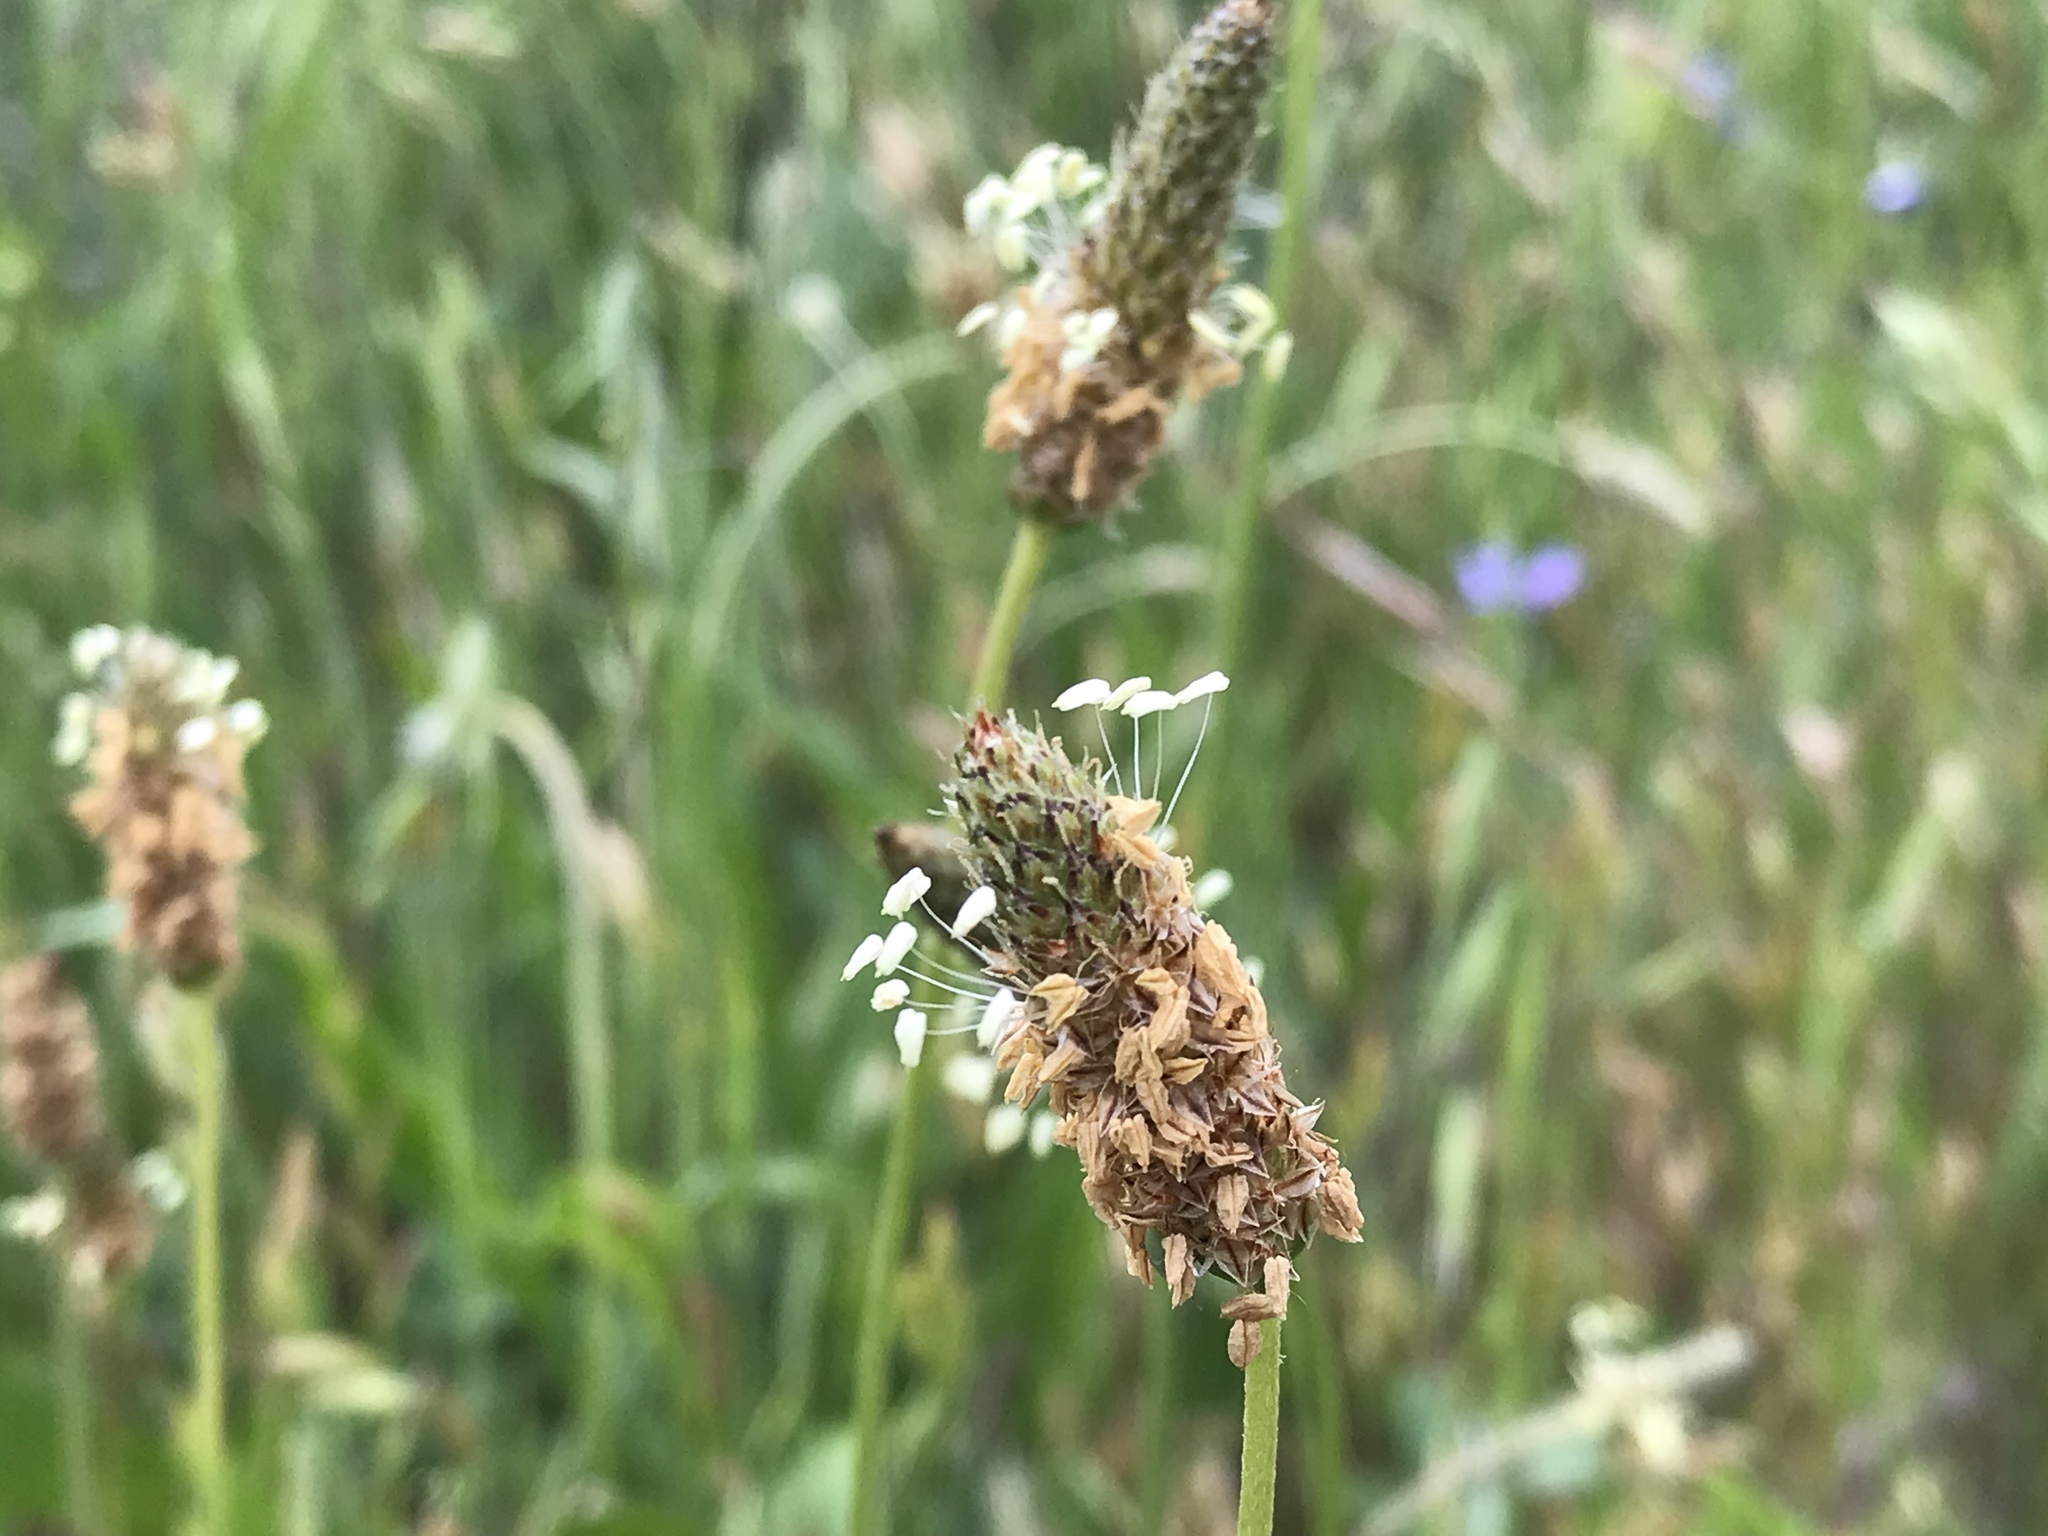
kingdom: Plantae
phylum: Tracheophyta
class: Magnoliopsida
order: Lamiales
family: Plantaginaceae
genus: Plantago
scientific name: Plantago lanceolata
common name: Ribwort plantain
